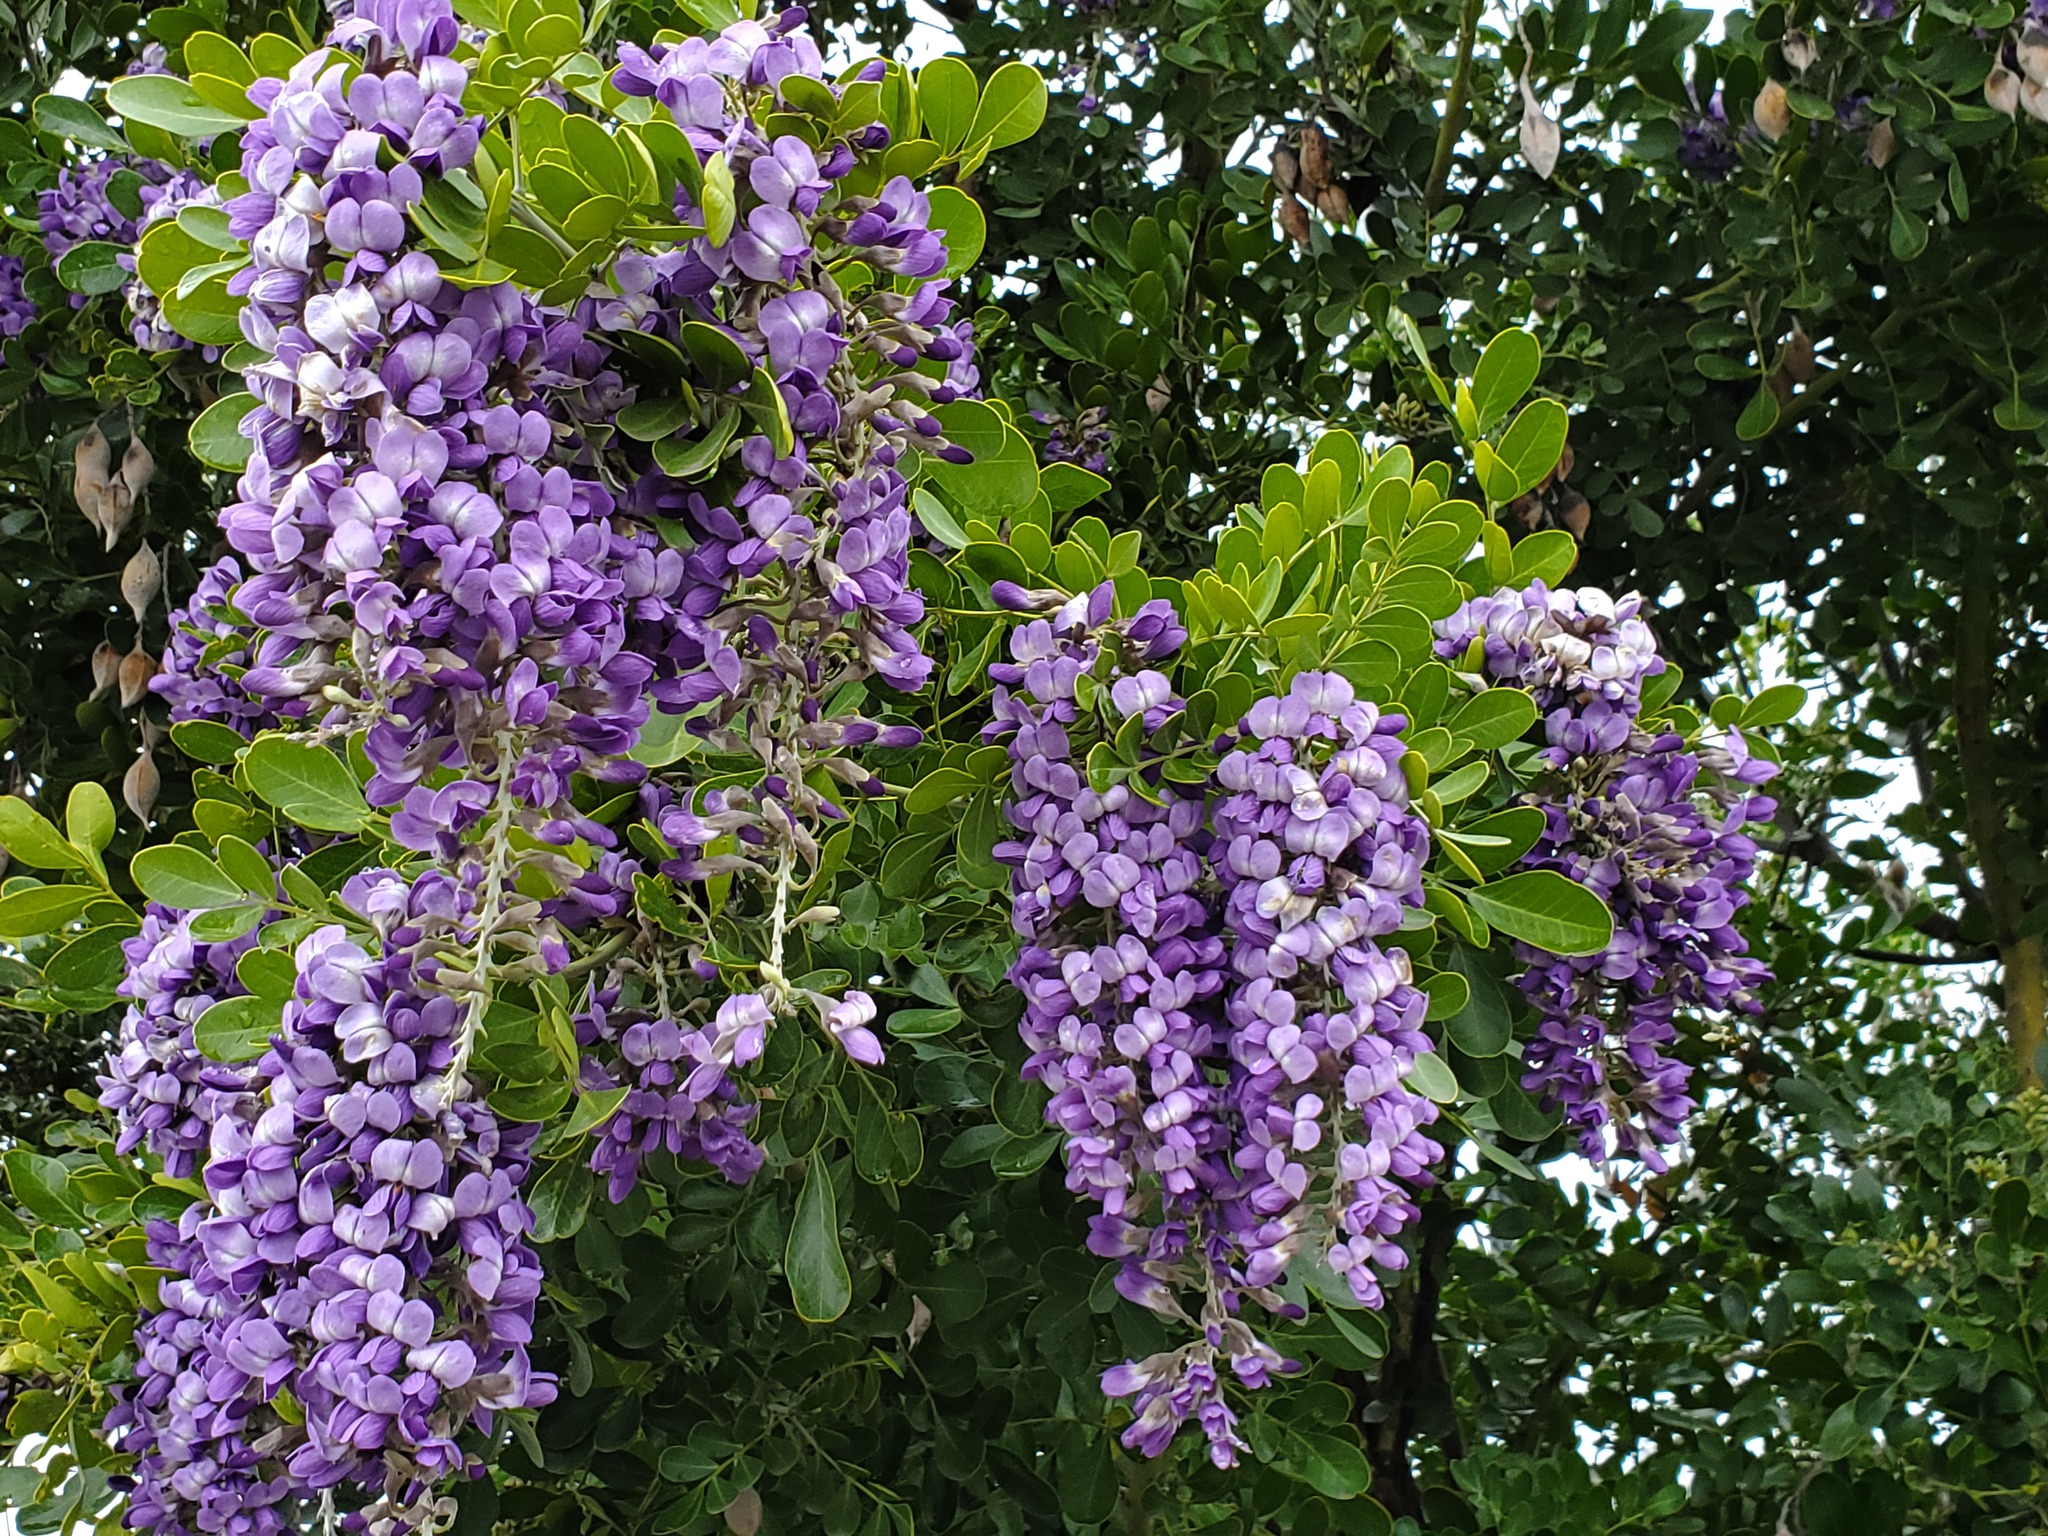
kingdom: Plantae
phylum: Tracheophyta
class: Magnoliopsida
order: Fabales
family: Fabaceae
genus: Dermatophyllum
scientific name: Dermatophyllum secundiflorum
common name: Texas-mountain-laurel
